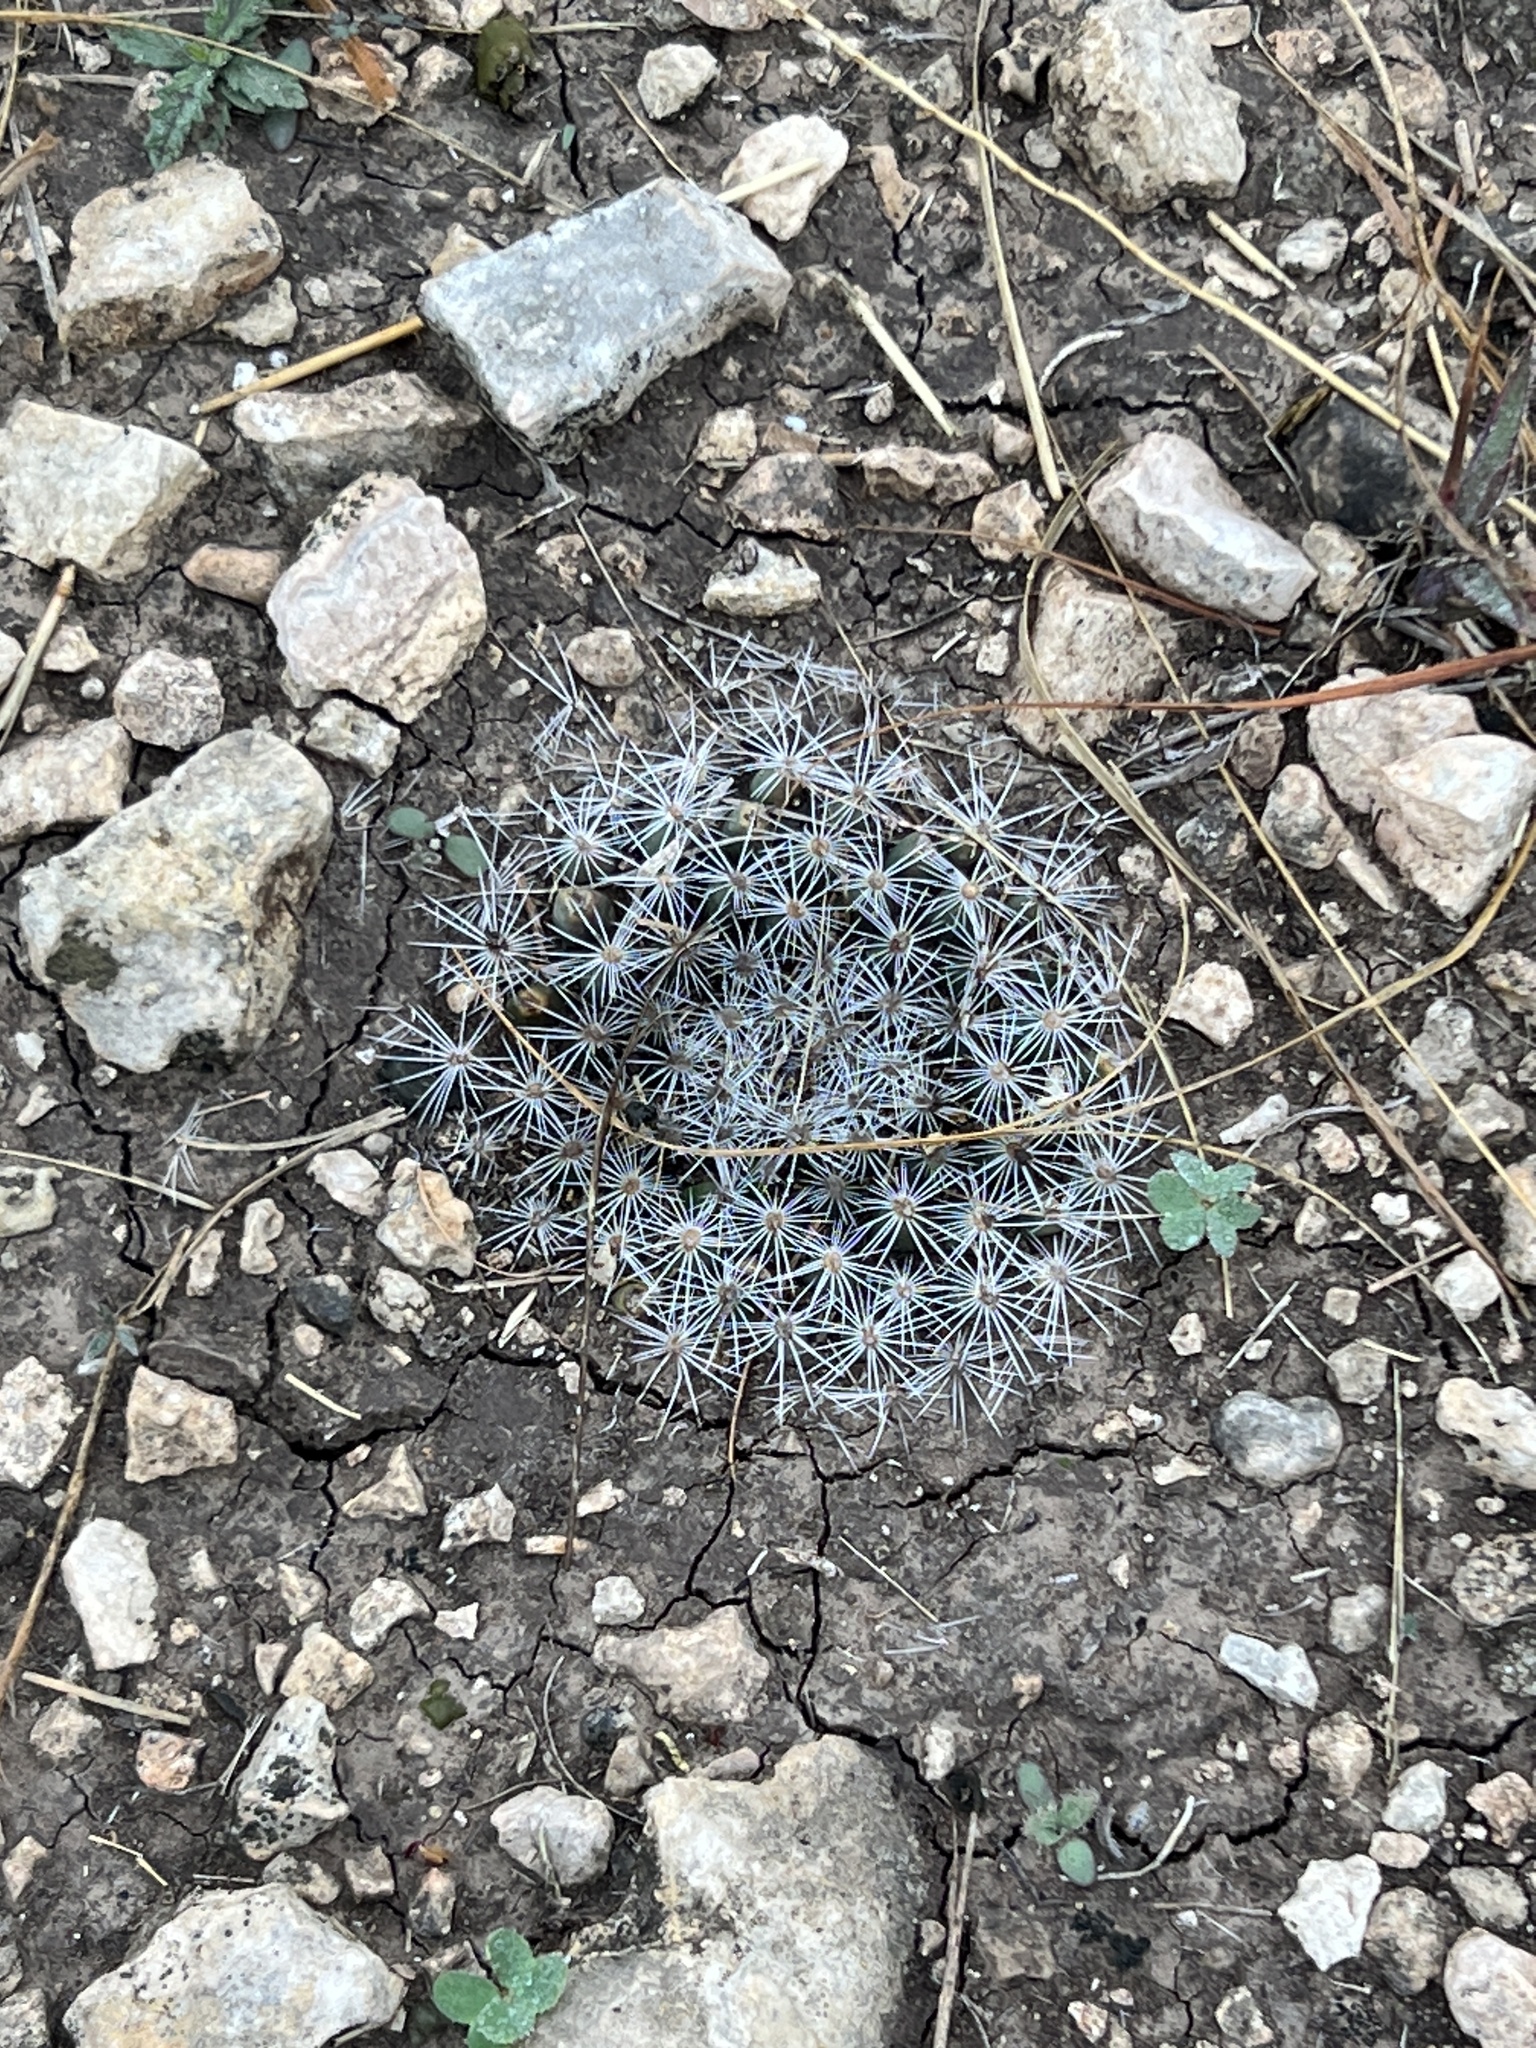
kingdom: Plantae
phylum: Tracheophyta
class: Magnoliopsida
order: Caryophyllales
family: Cactaceae
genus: Mammillaria
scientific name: Mammillaria heyderi
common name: Little nipple cactus
